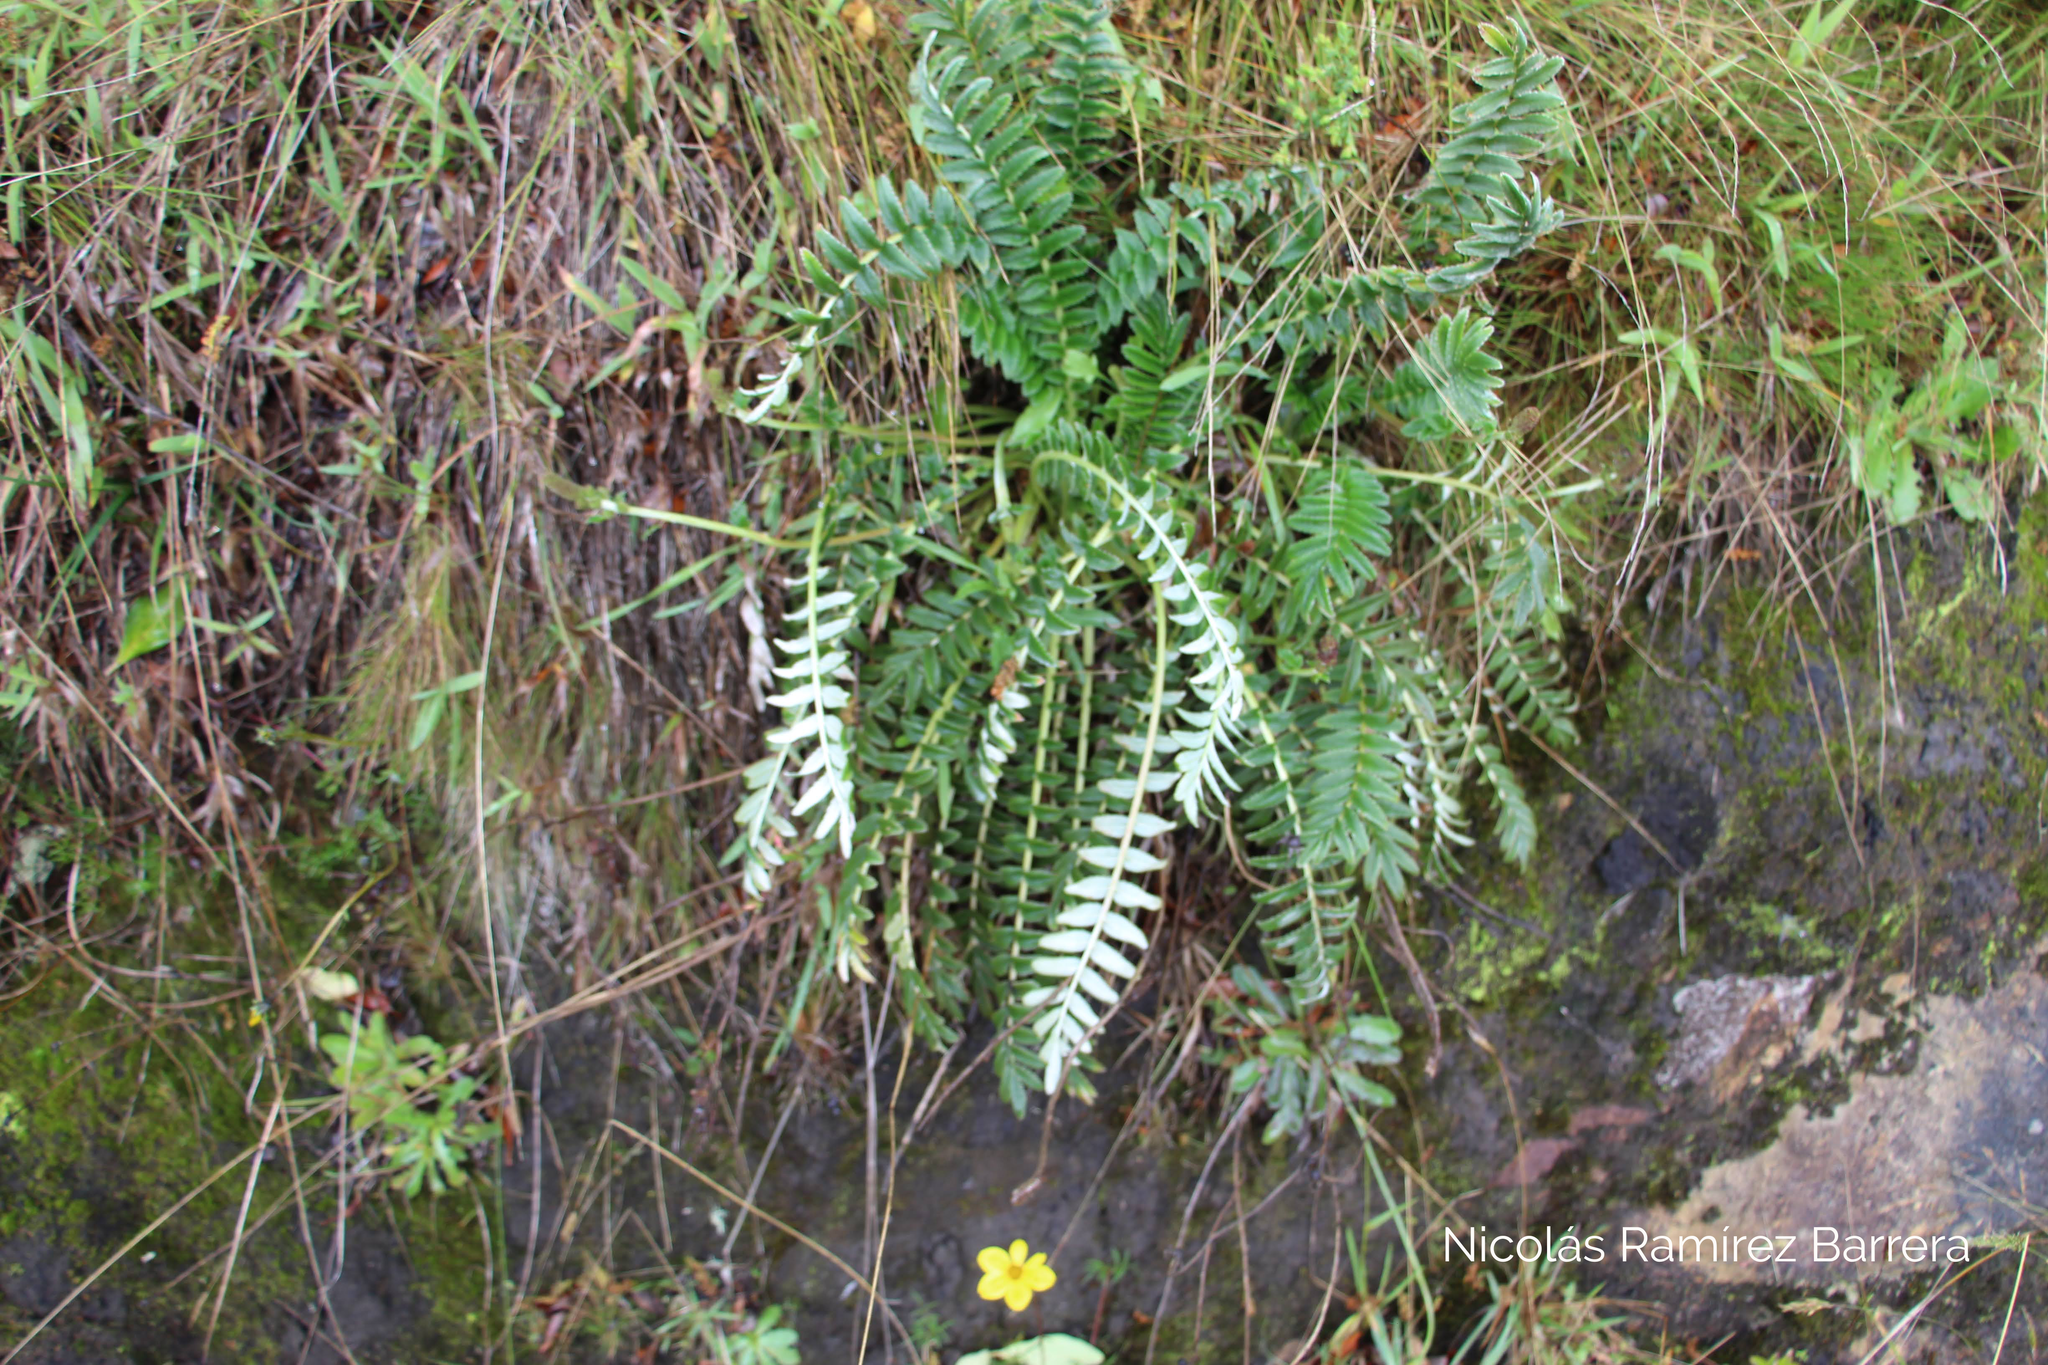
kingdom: Plantae
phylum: Tracheophyta
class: Magnoliopsida
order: Rosales
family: Rosaceae
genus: Acaena
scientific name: Acaena cylindristachya
